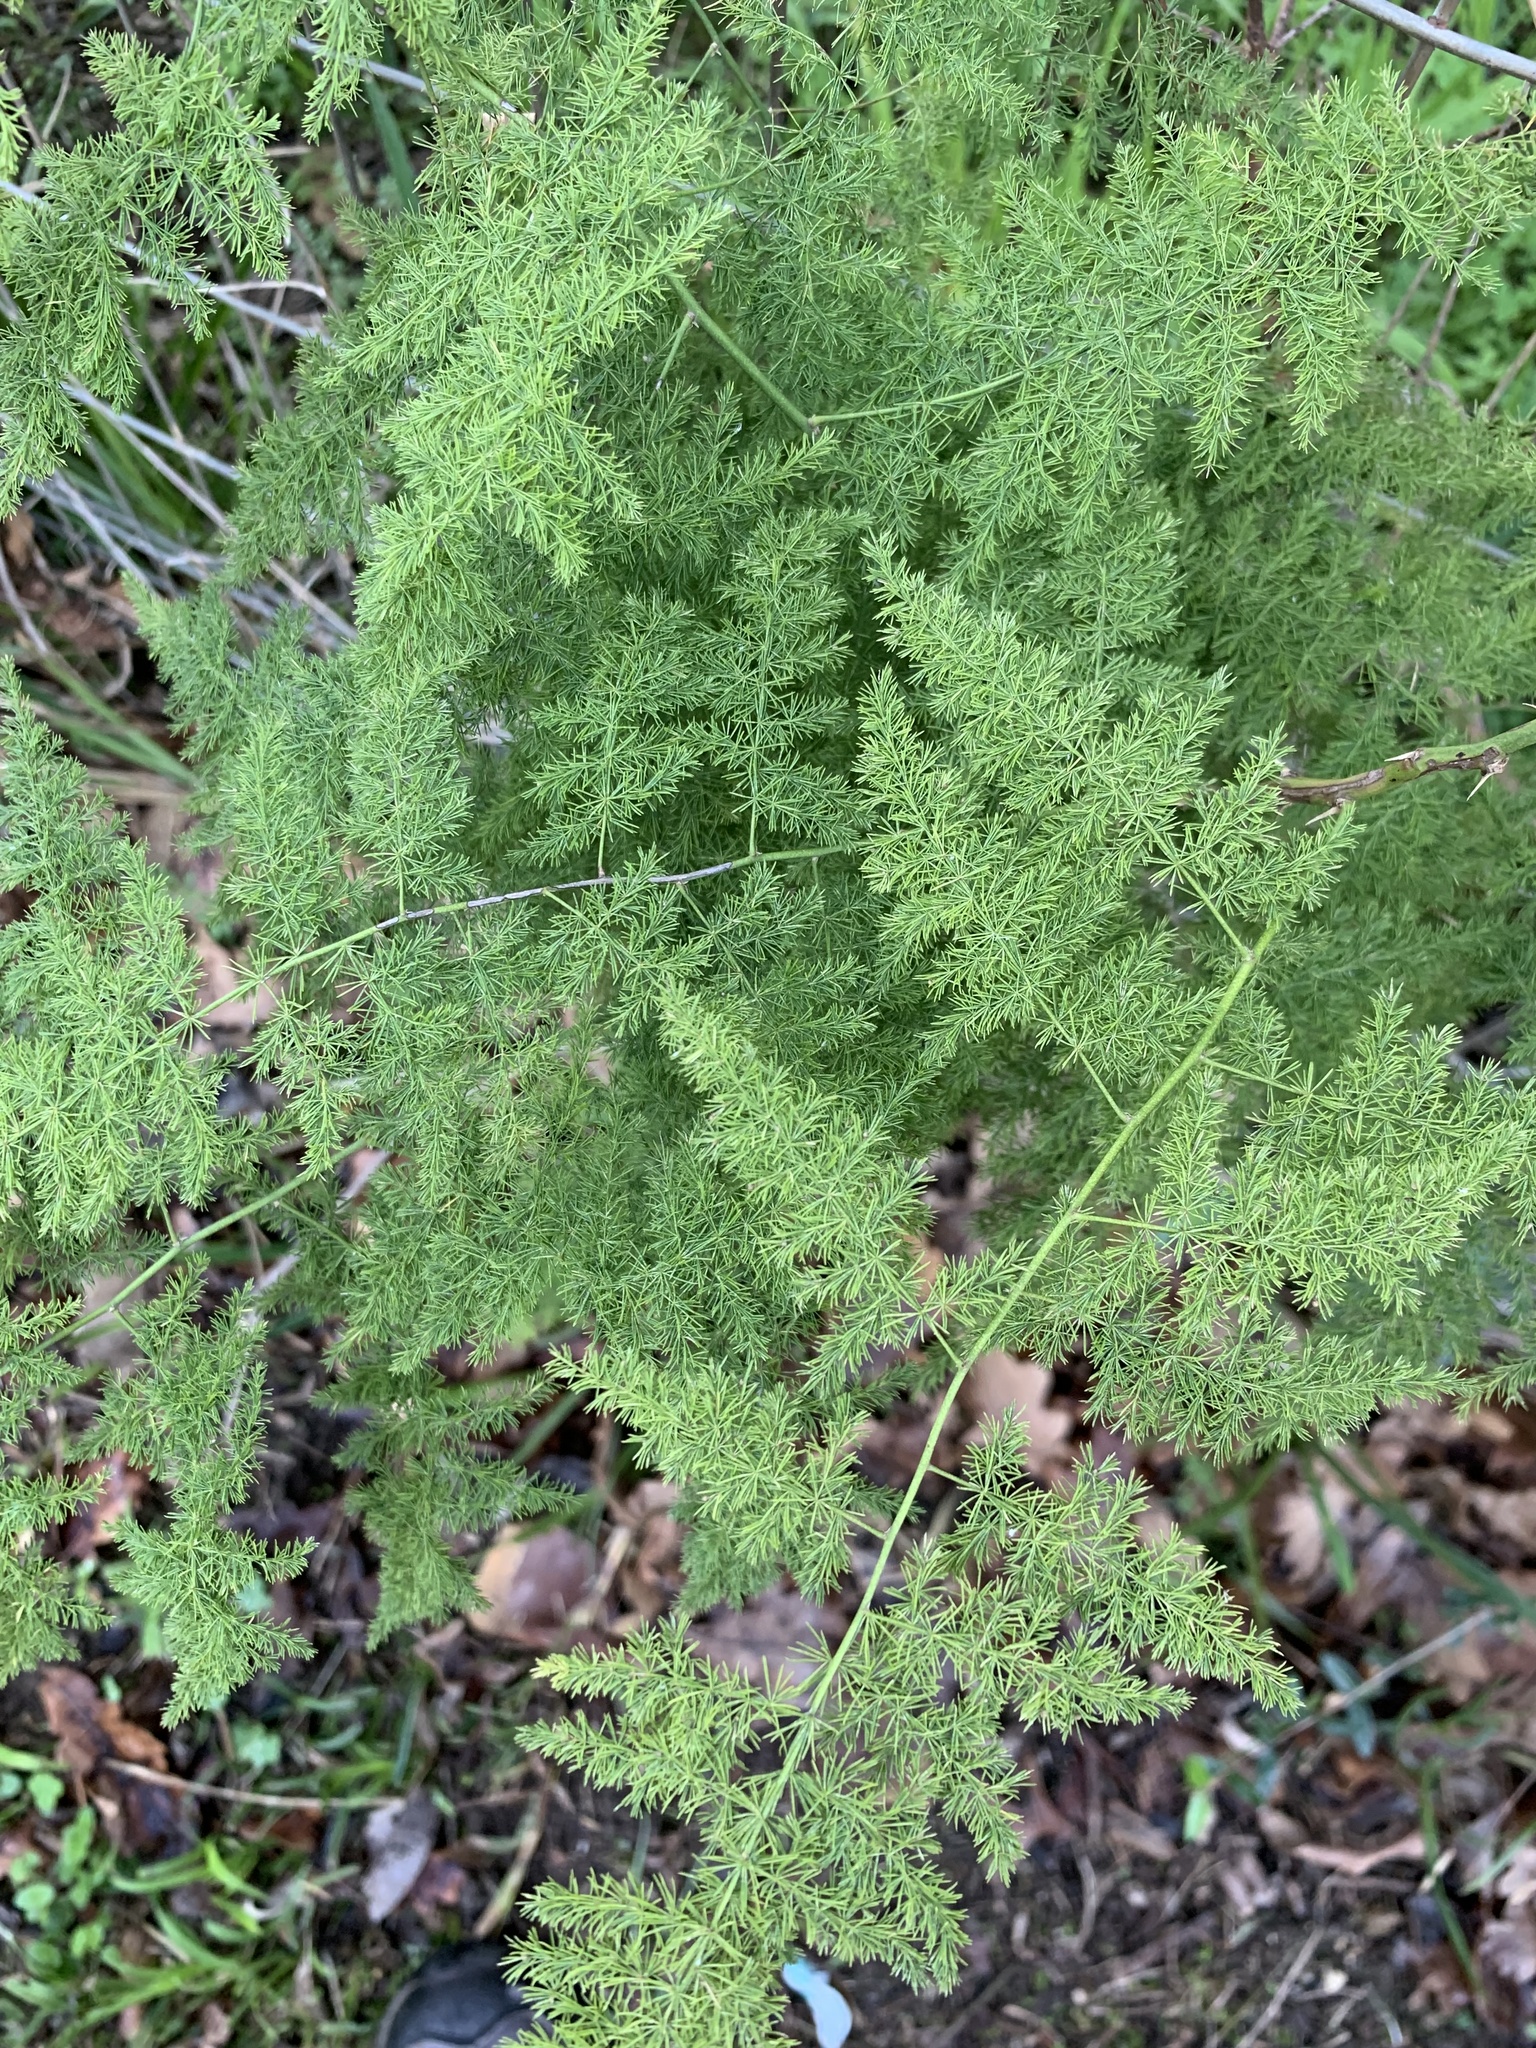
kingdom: Plantae
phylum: Tracheophyta
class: Liliopsida
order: Asparagales
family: Asparagaceae
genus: Asparagus
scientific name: Asparagus setaceus
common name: Common asparagus fern
